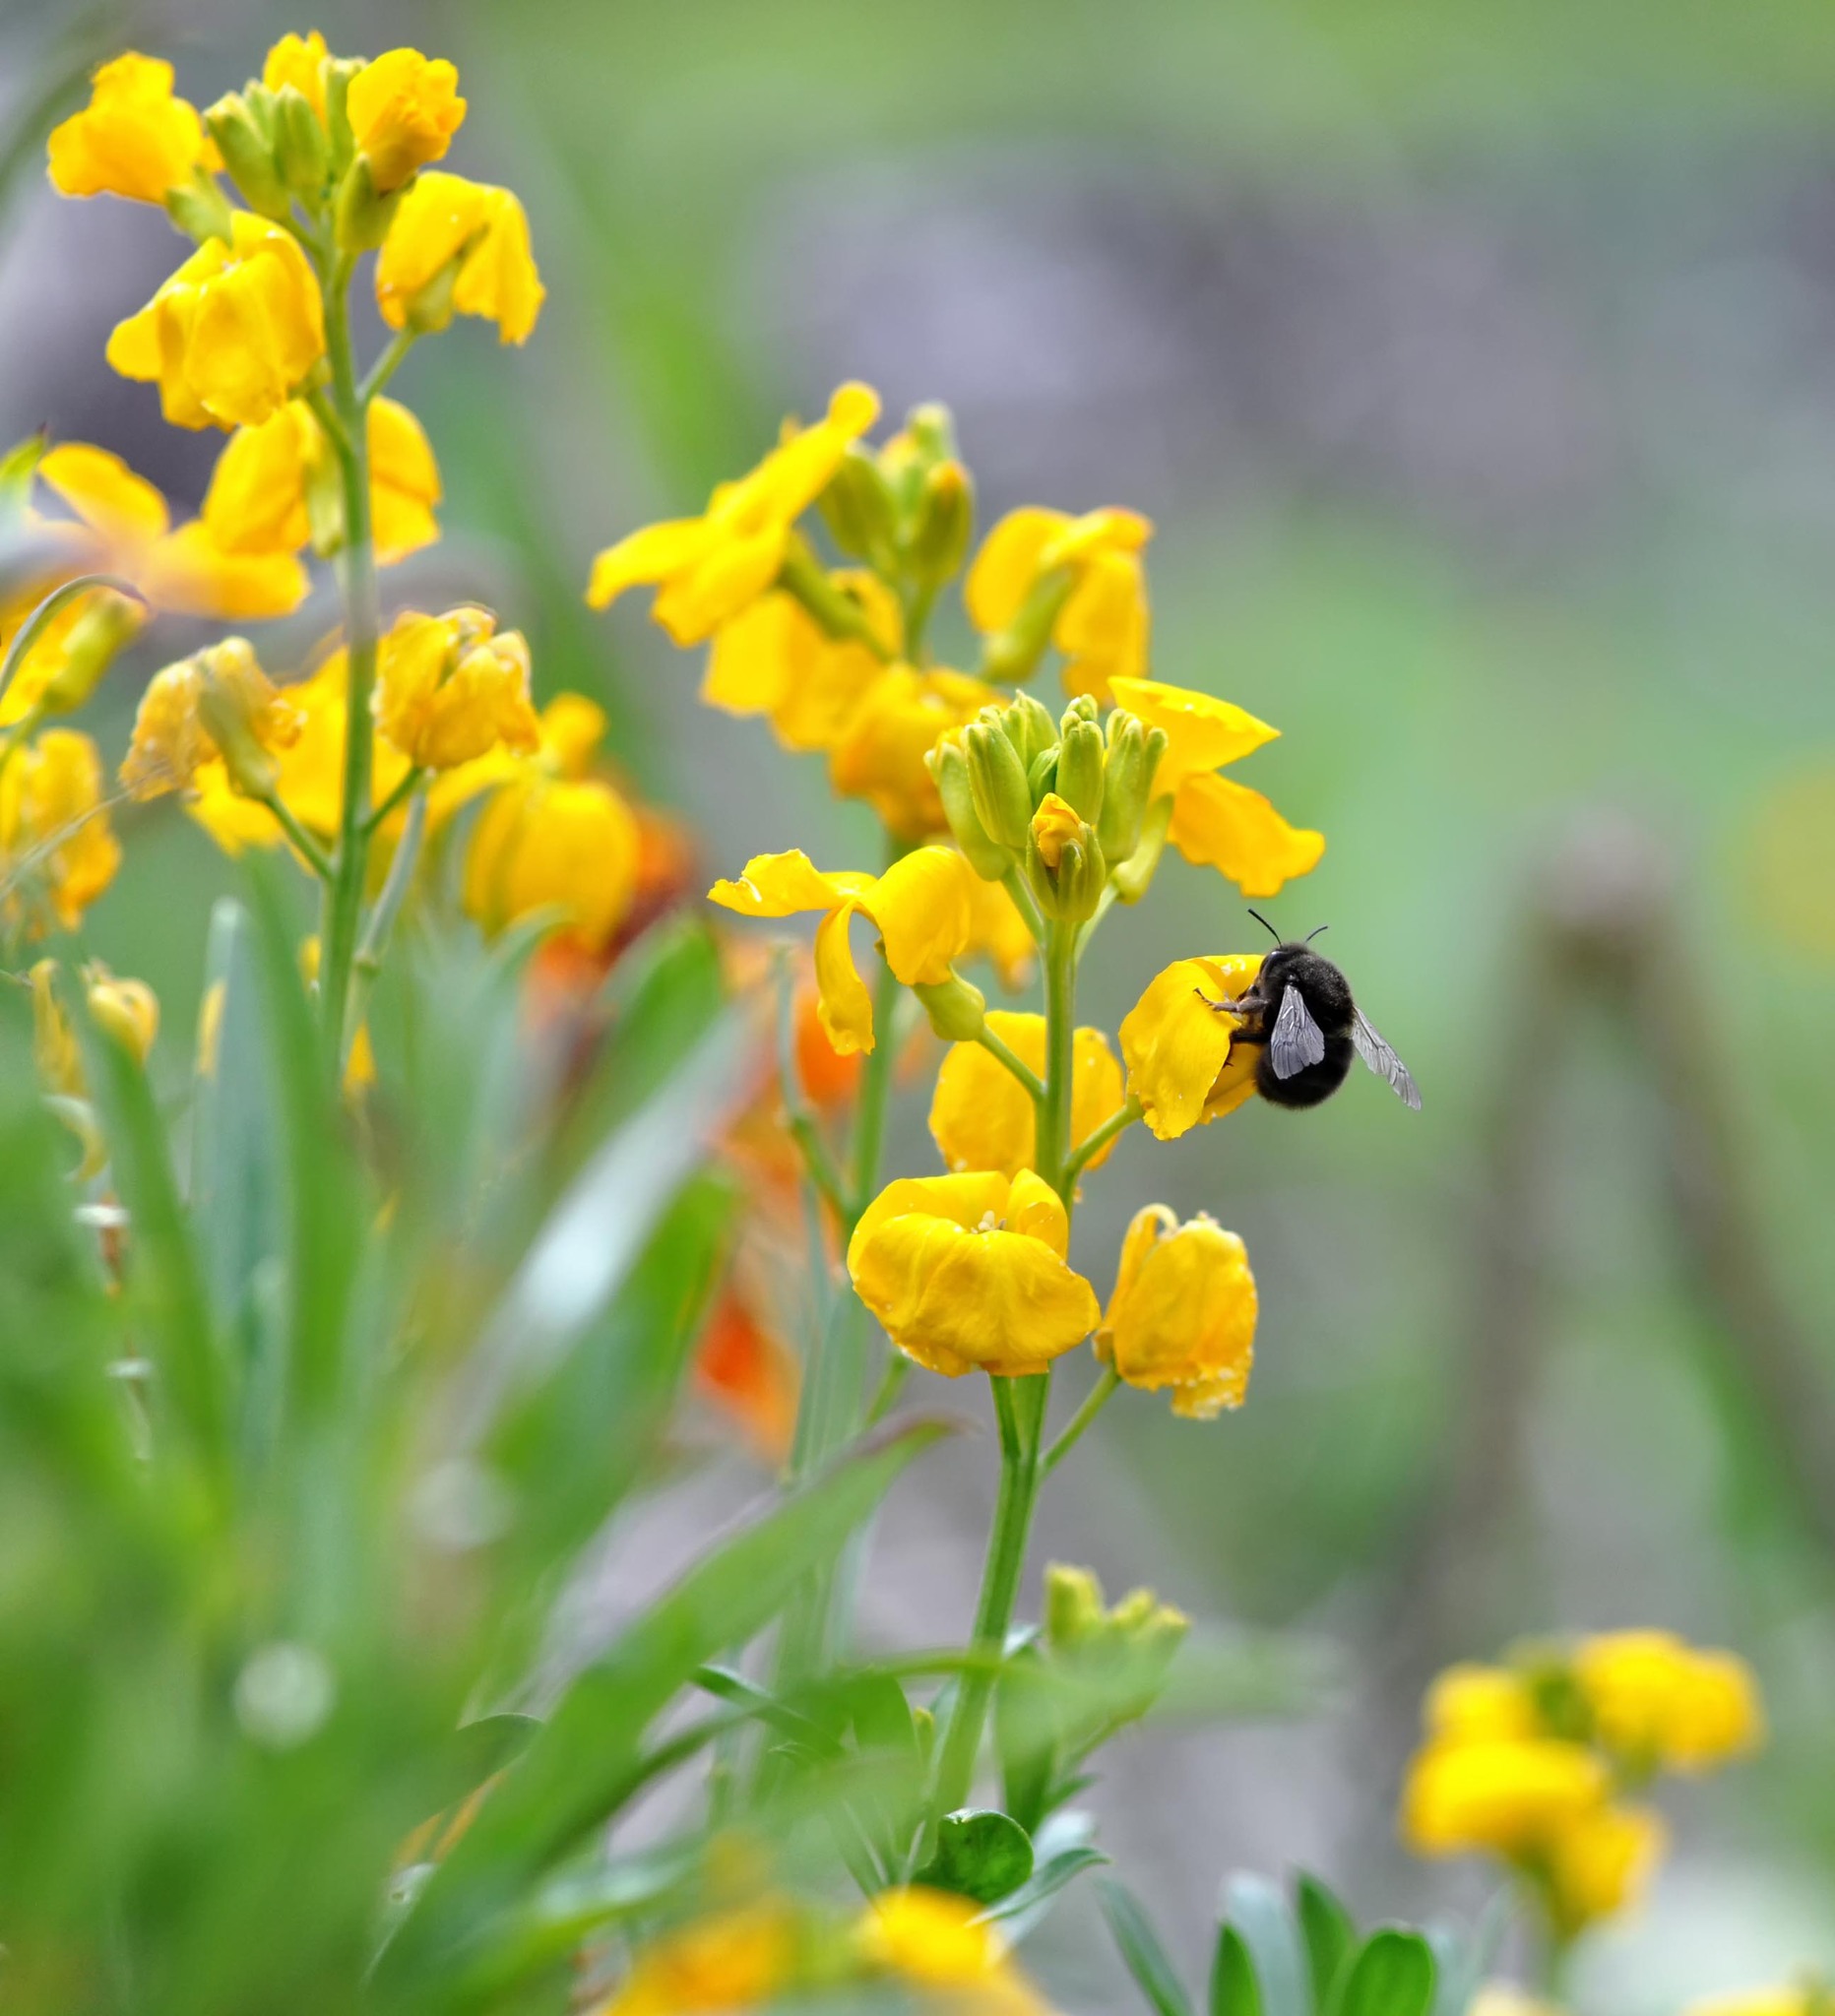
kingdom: Animalia
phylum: Arthropoda
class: Insecta
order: Hymenoptera
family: Apidae
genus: Anthophora
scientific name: Anthophora plumipes
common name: Hairy-footed flower bee
